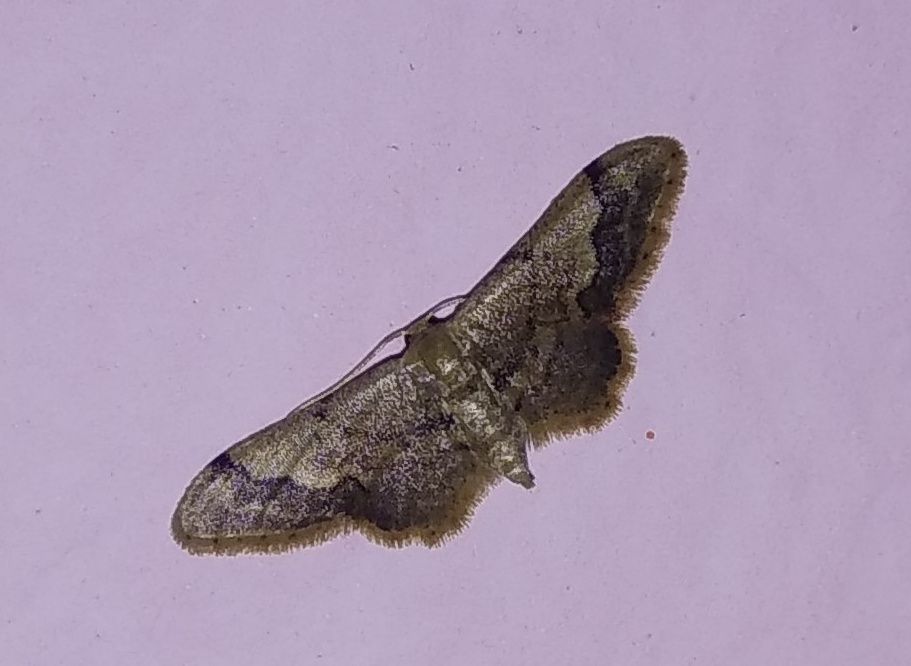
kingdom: Animalia
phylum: Arthropoda
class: Insecta
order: Lepidoptera
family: Geometridae
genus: Idaea
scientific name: Idaea violacea
